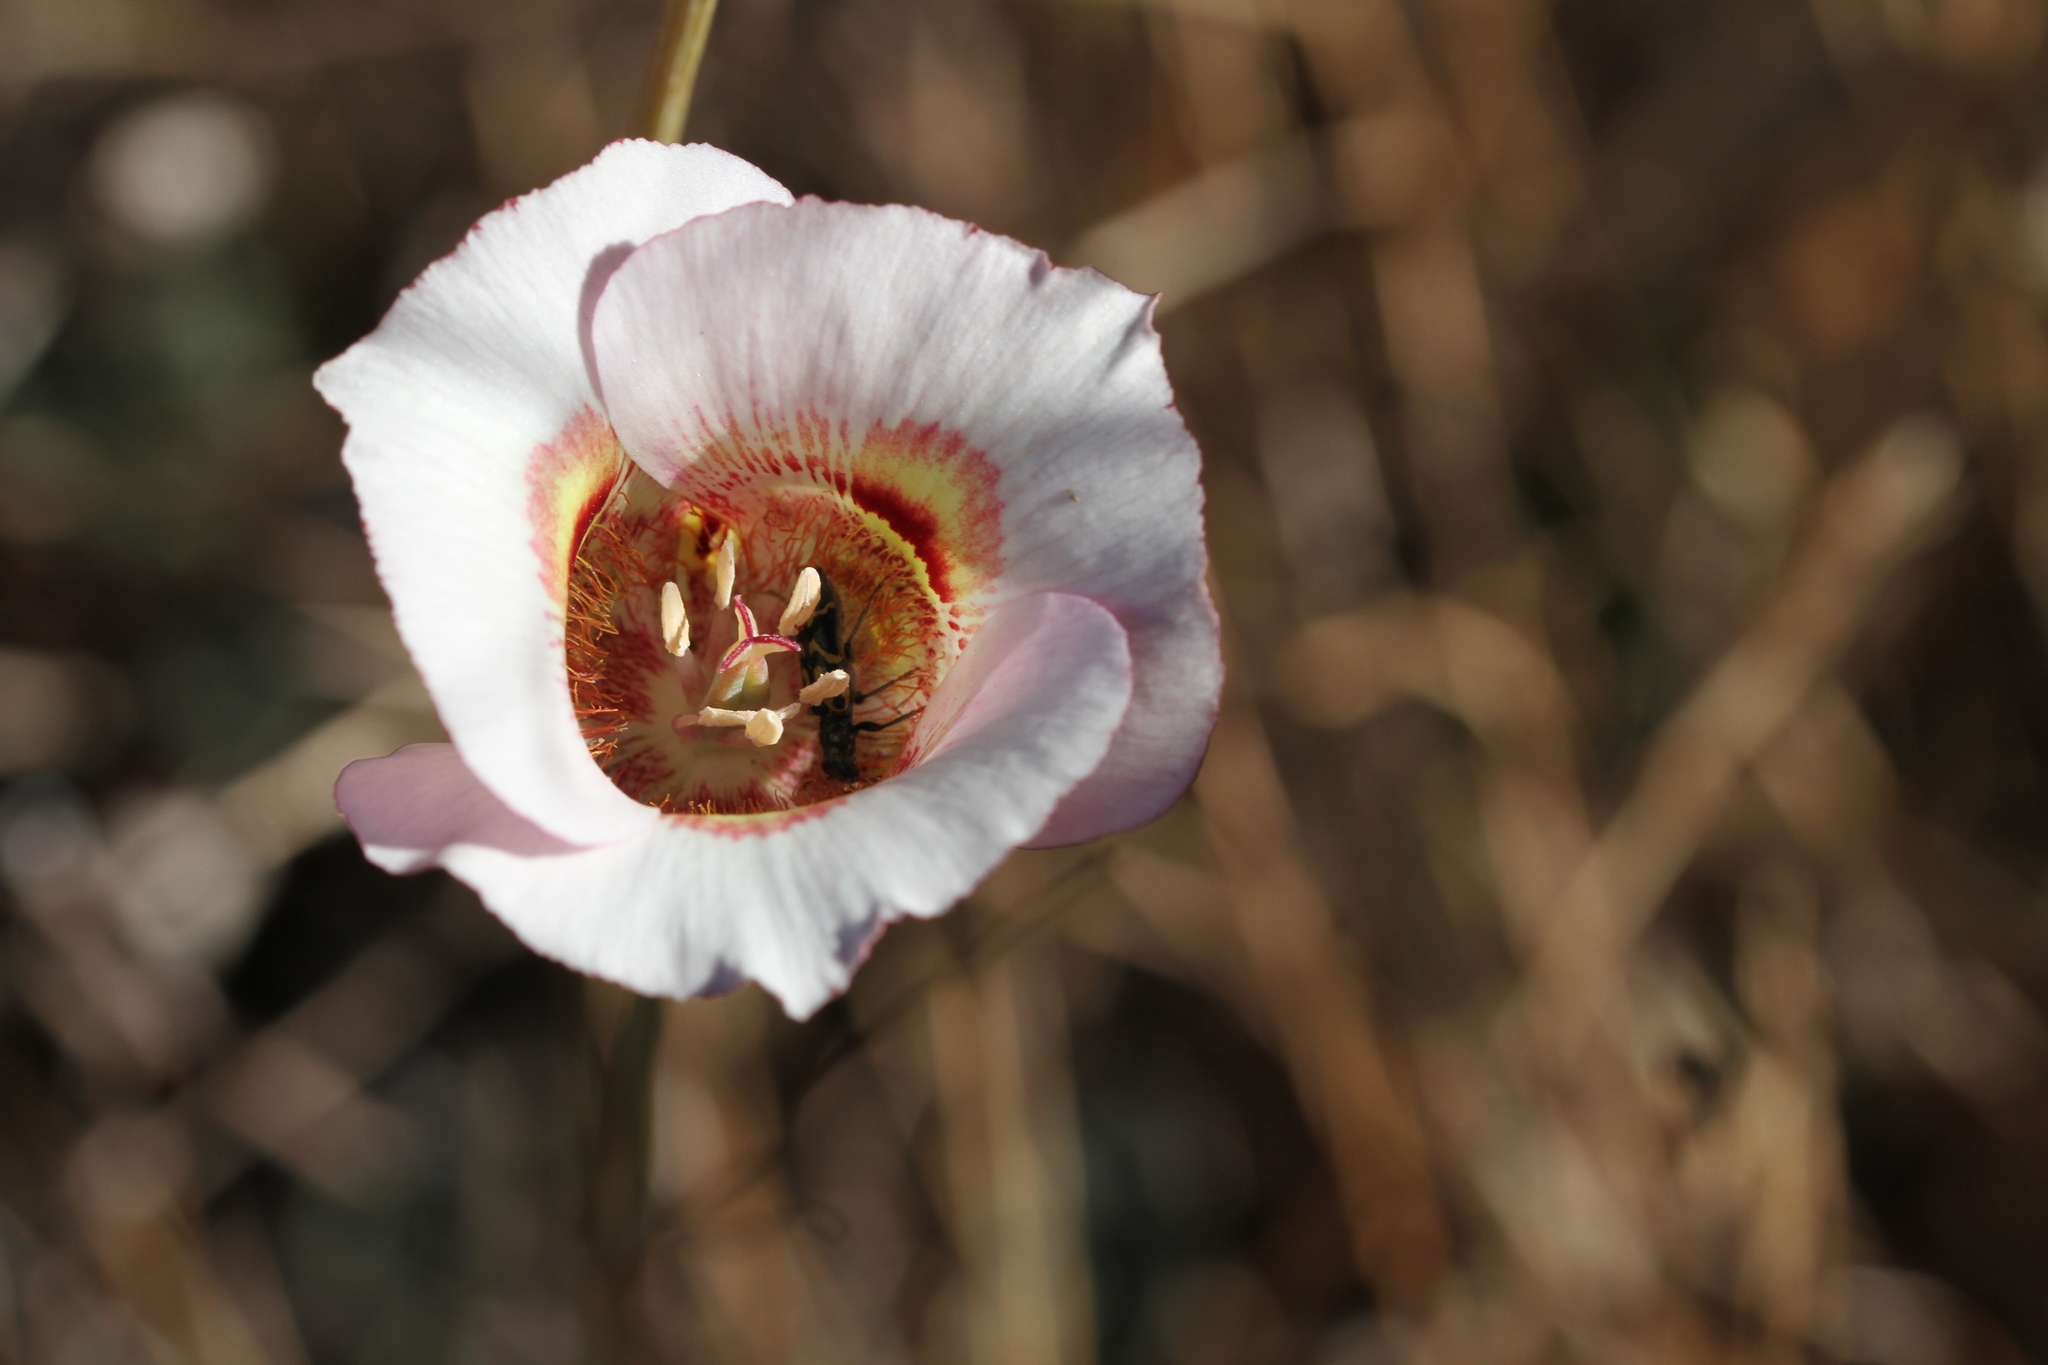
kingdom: Plantae
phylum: Tracheophyta
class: Liliopsida
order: Liliales
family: Liliaceae
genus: Calochortus
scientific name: Calochortus argillosus
